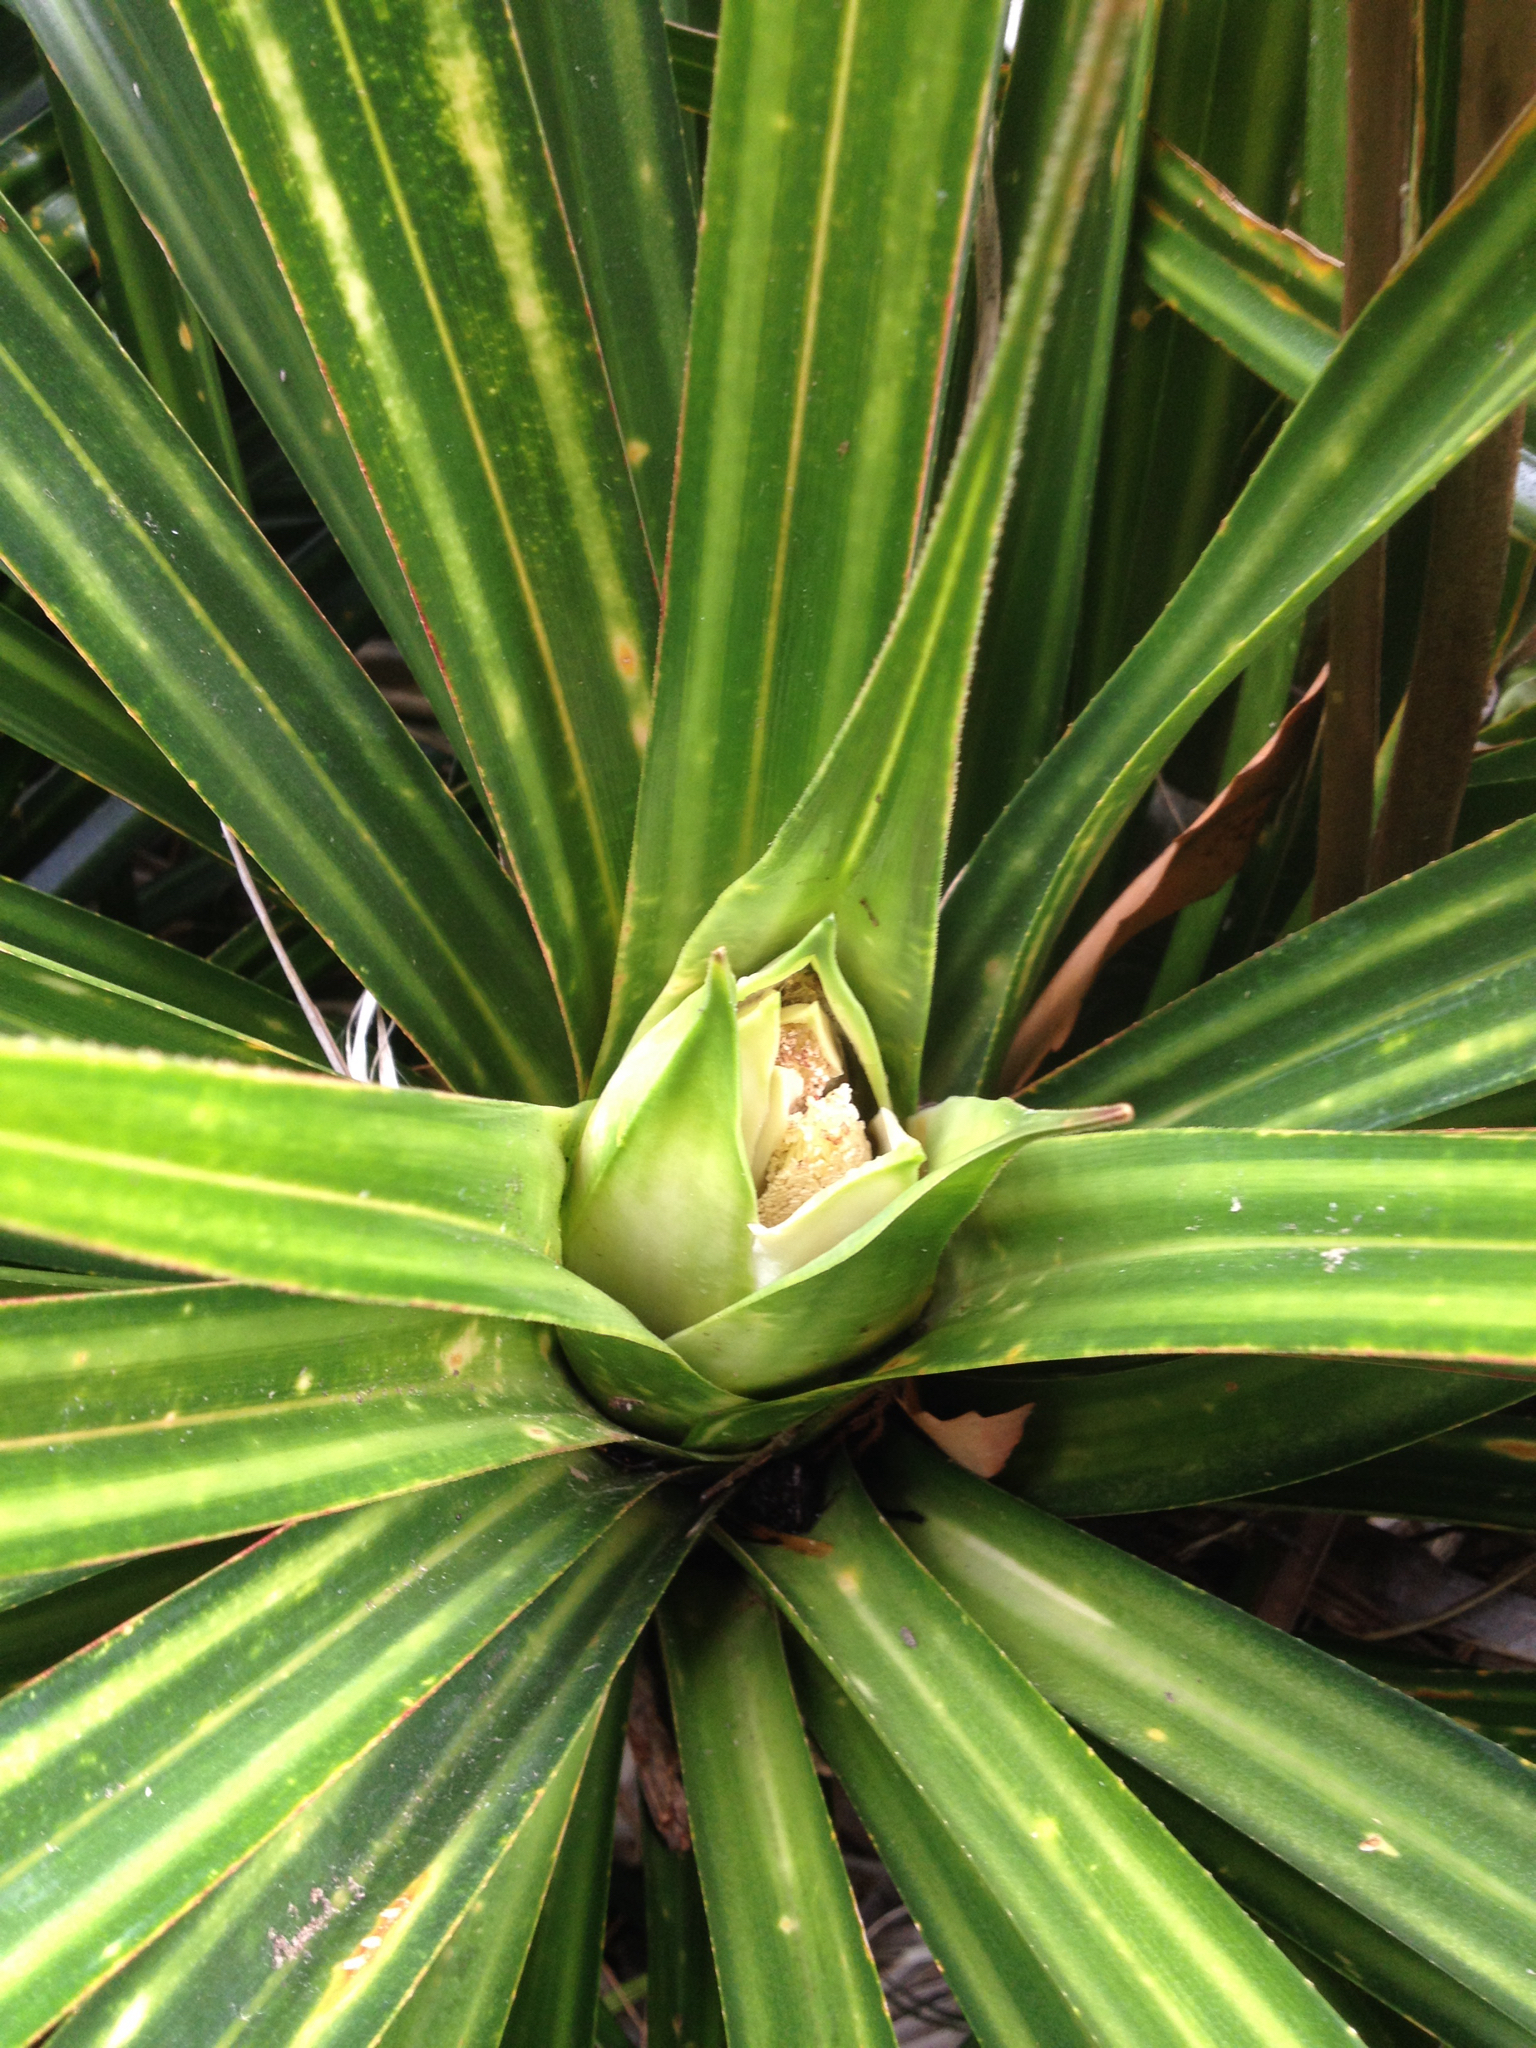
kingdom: Plantae
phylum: Tracheophyta
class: Liliopsida
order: Pandanales
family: Pandanaceae
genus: Freycinetia
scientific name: Freycinetia banksii
